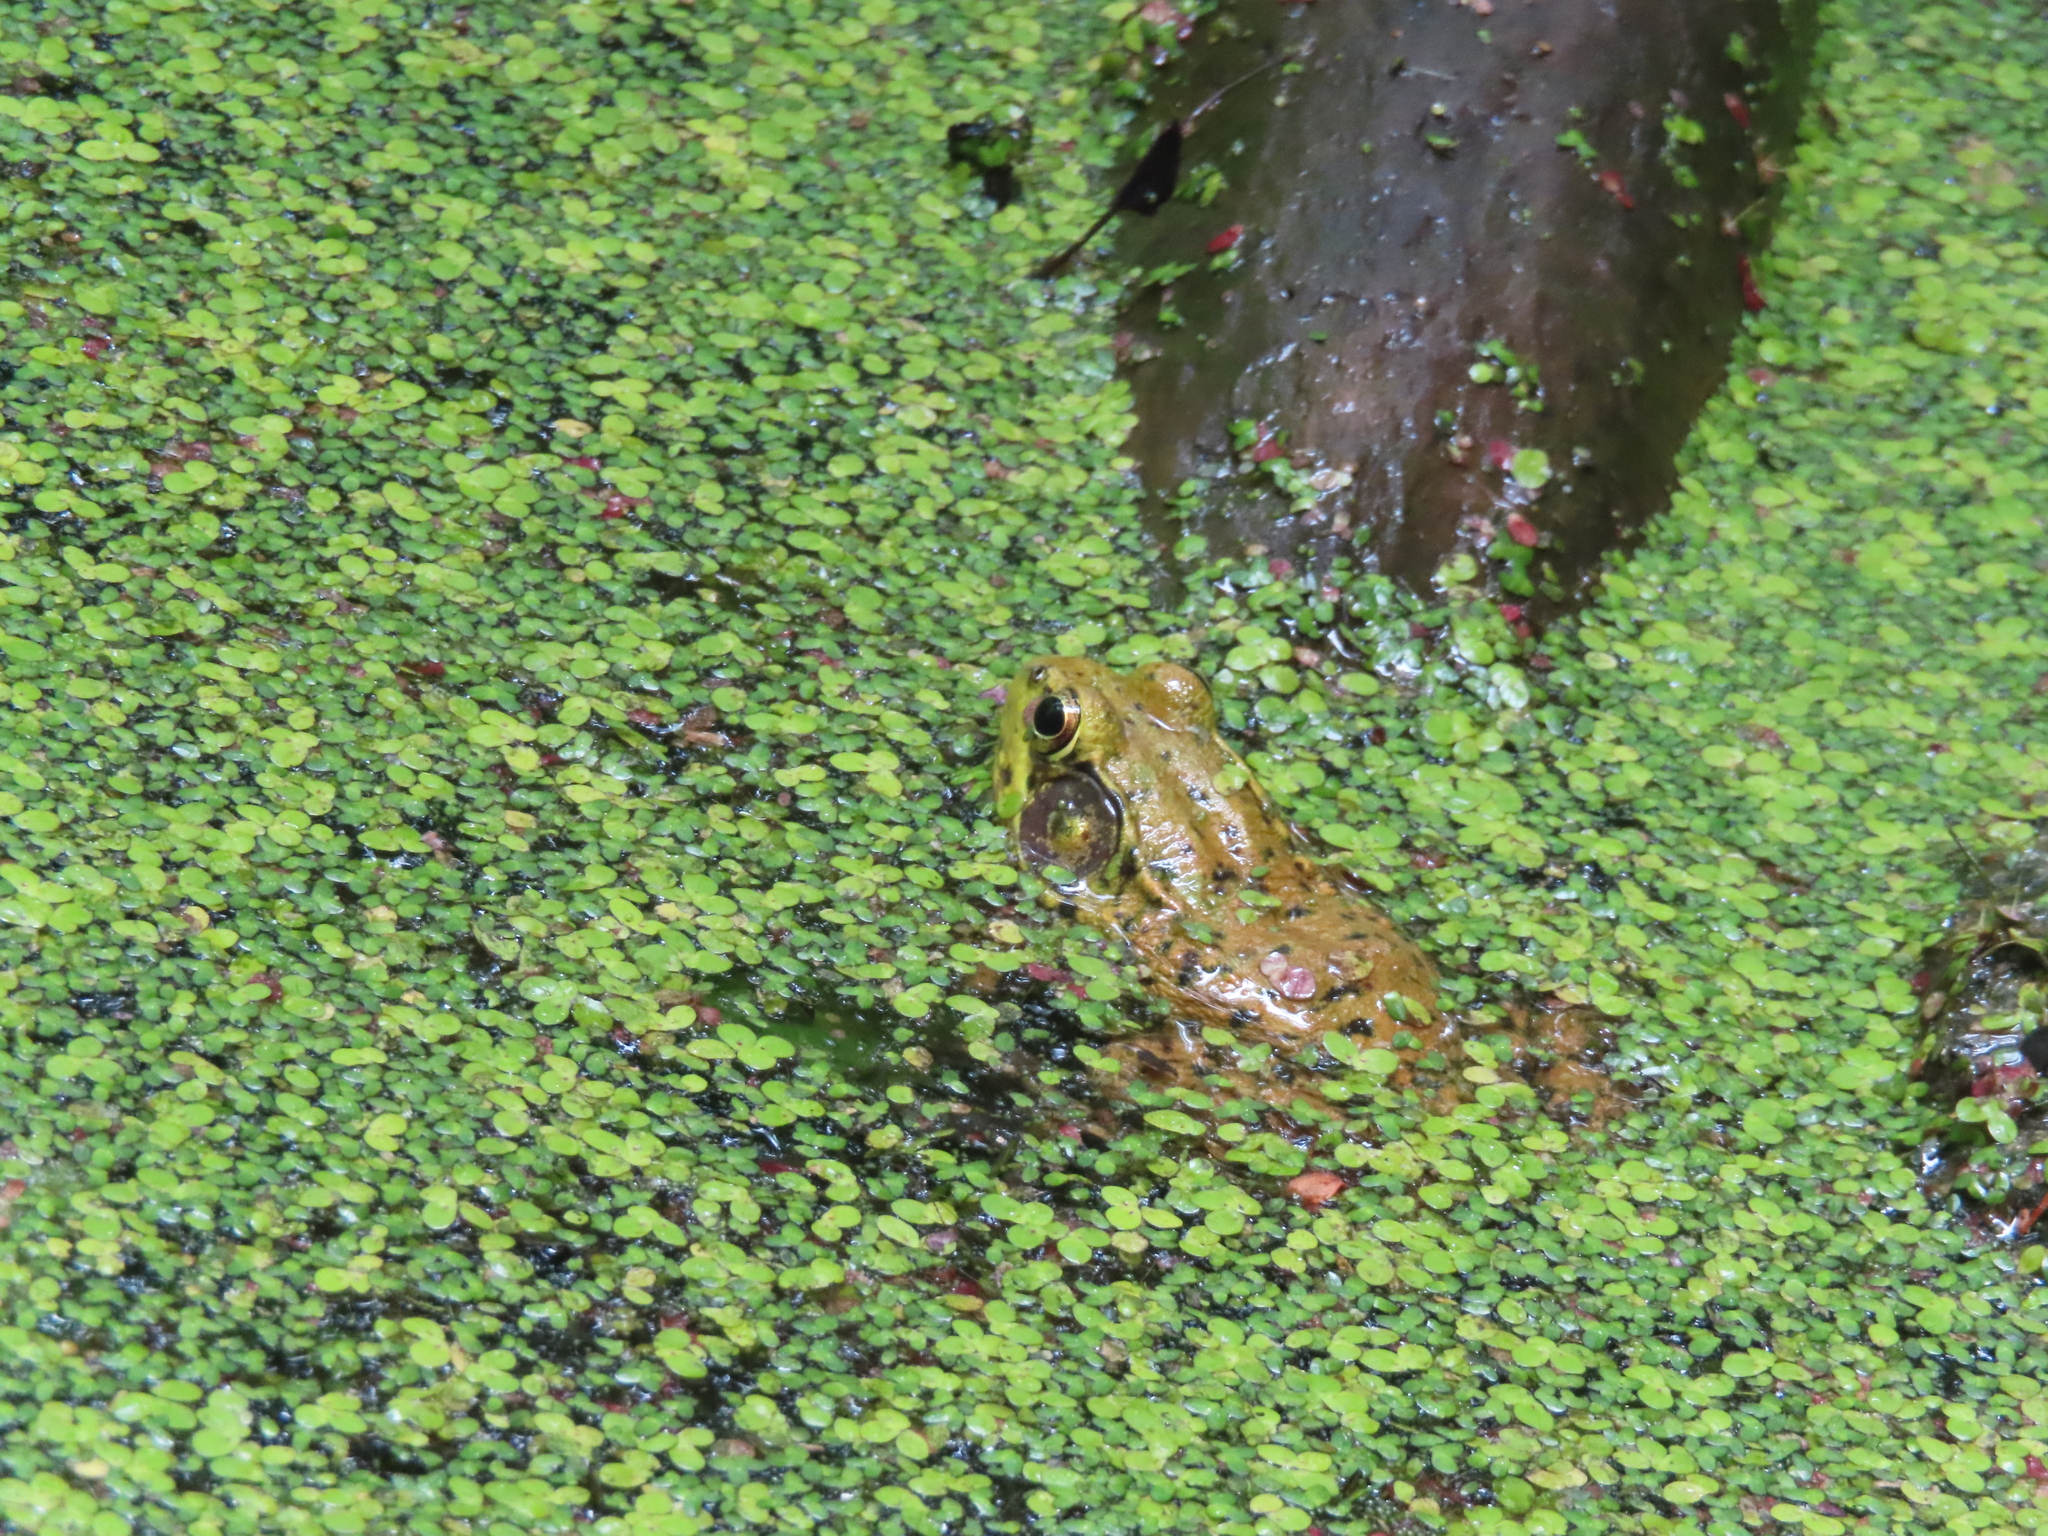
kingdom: Animalia
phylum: Chordata
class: Amphibia
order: Anura
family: Ranidae
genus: Lithobates
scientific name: Lithobates clamitans
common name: Green frog
